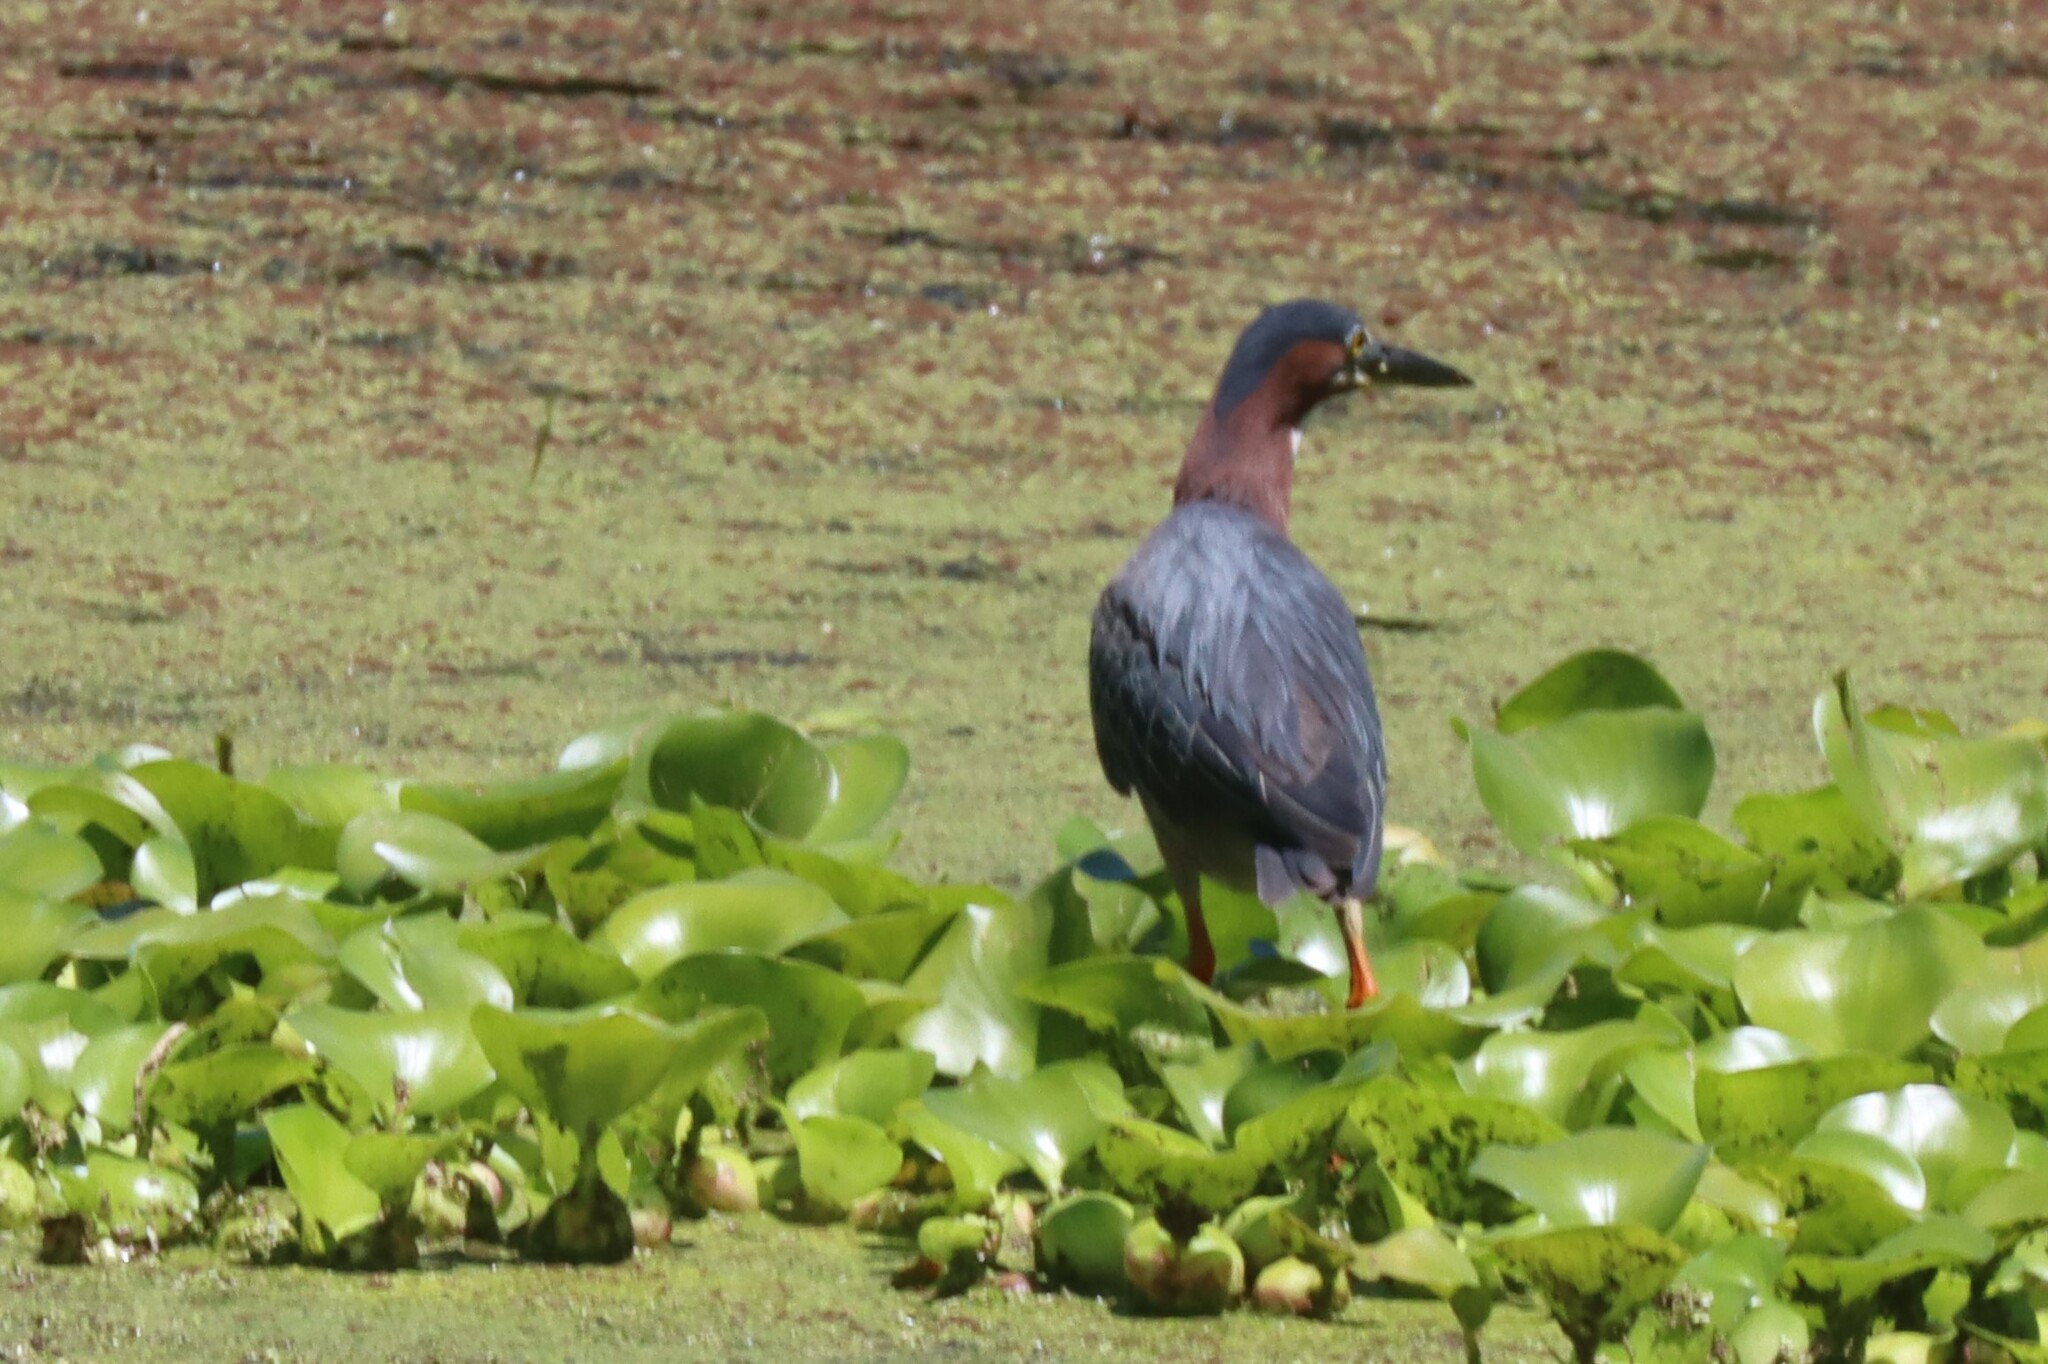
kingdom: Animalia
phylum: Chordata
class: Aves
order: Pelecaniformes
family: Ardeidae
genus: Butorides
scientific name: Butorides virescens
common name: Green heron
